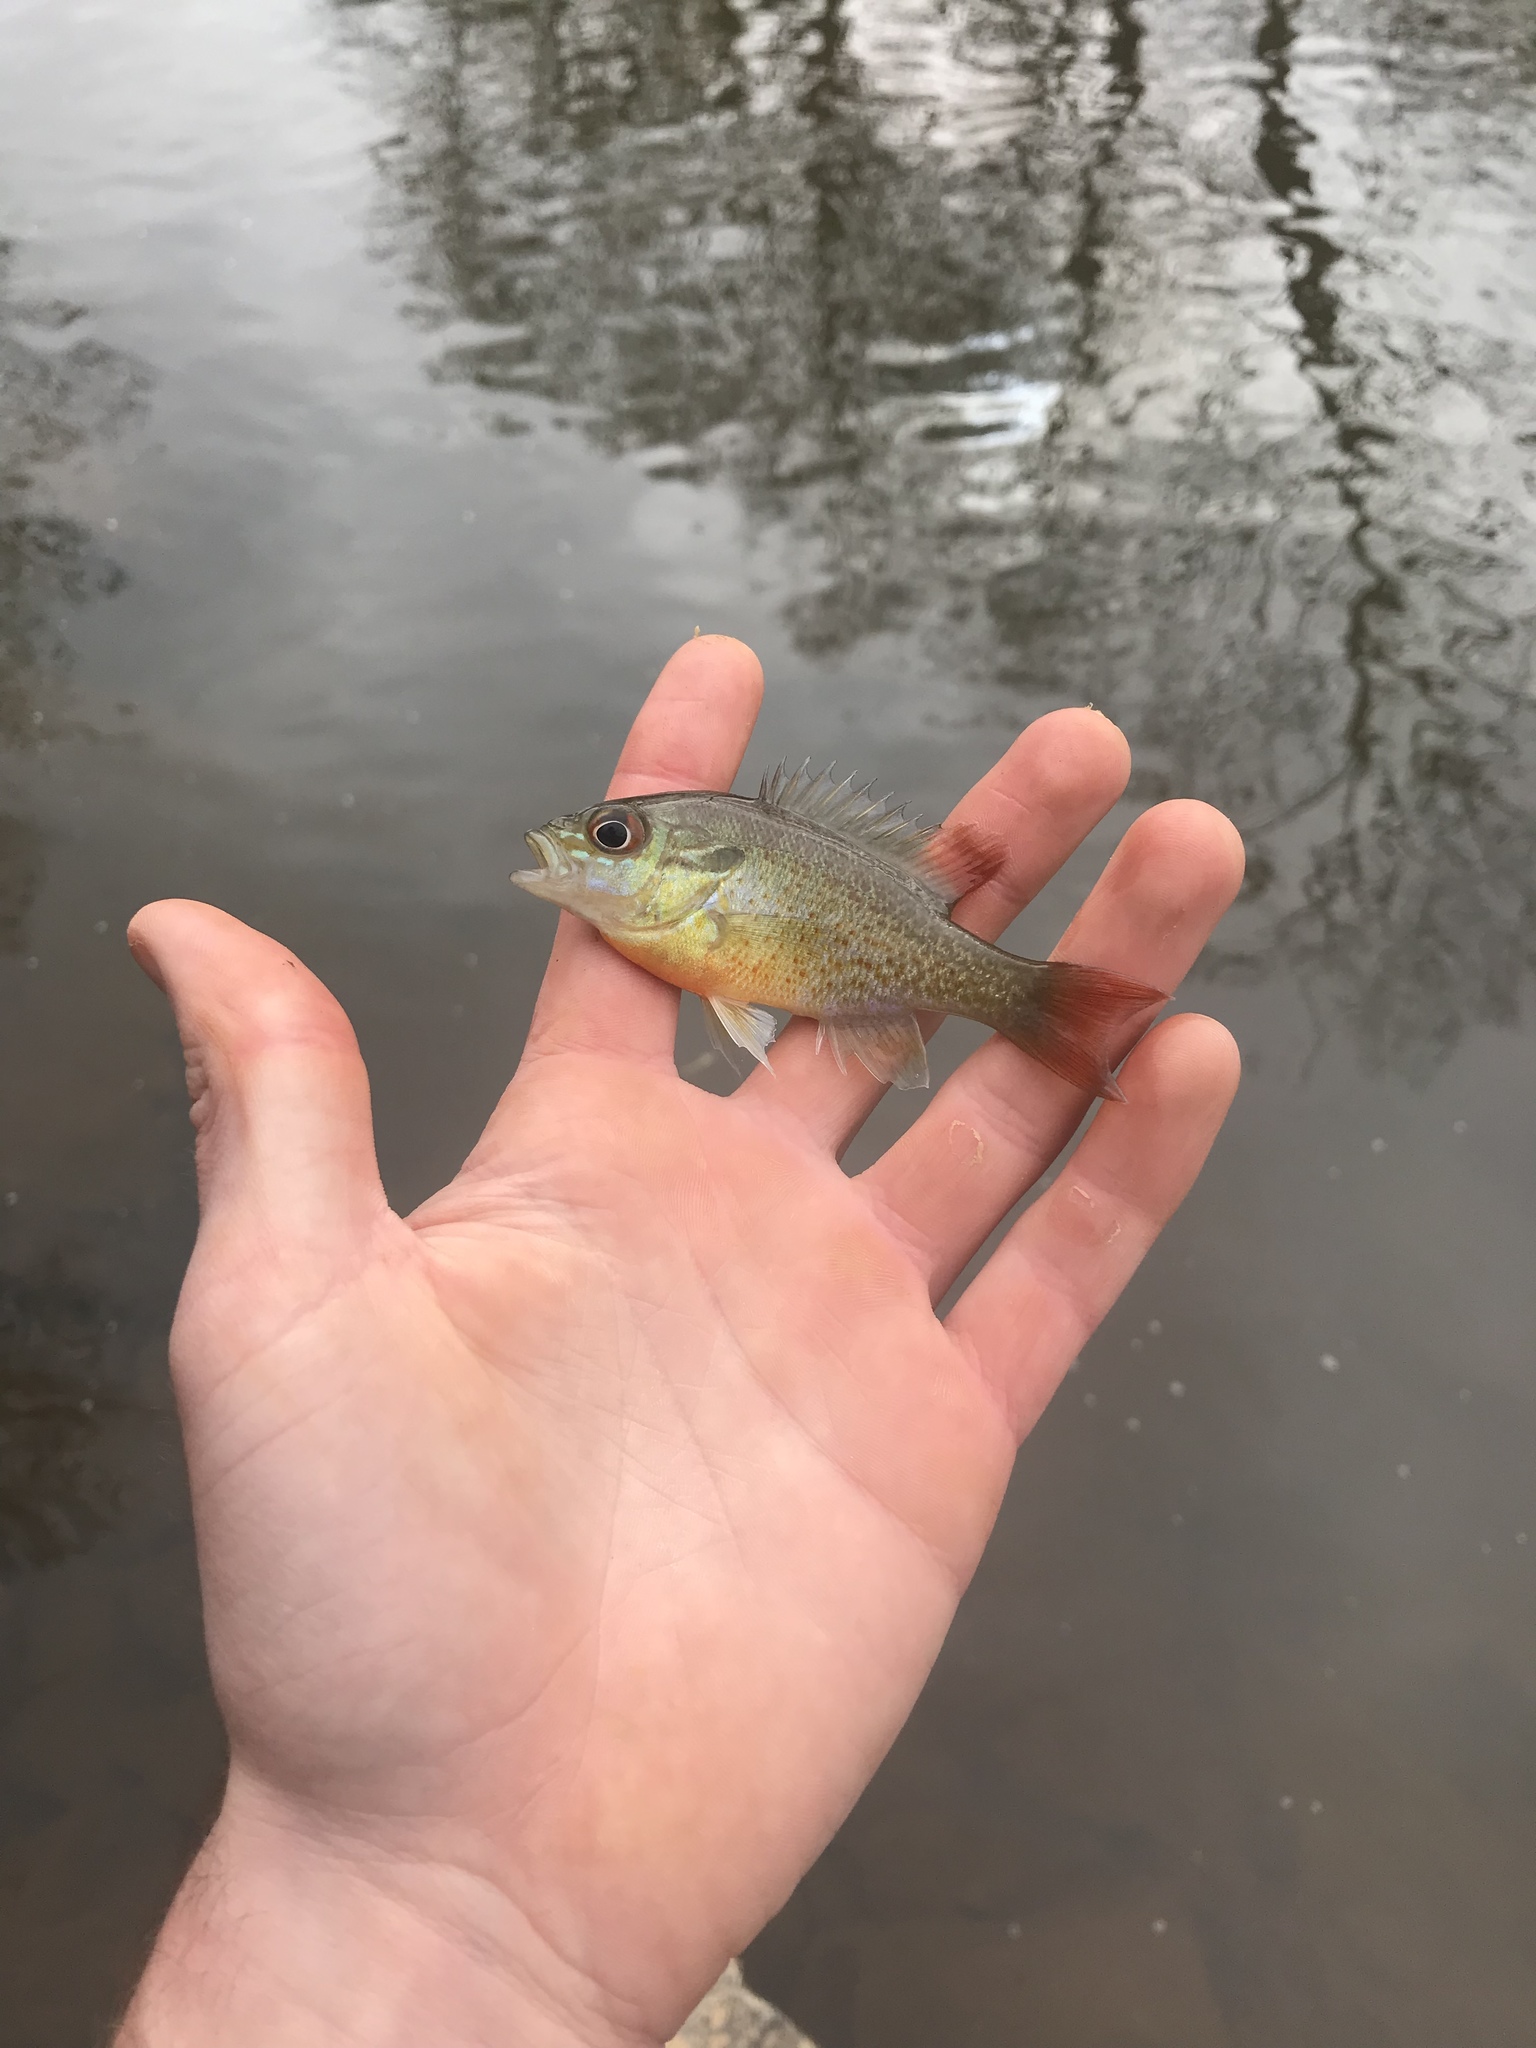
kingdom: Animalia
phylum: Chordata
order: Perciformes
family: Centrarchidae
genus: Lepomis
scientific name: Lepomis auritus
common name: Redbreast sunfish
